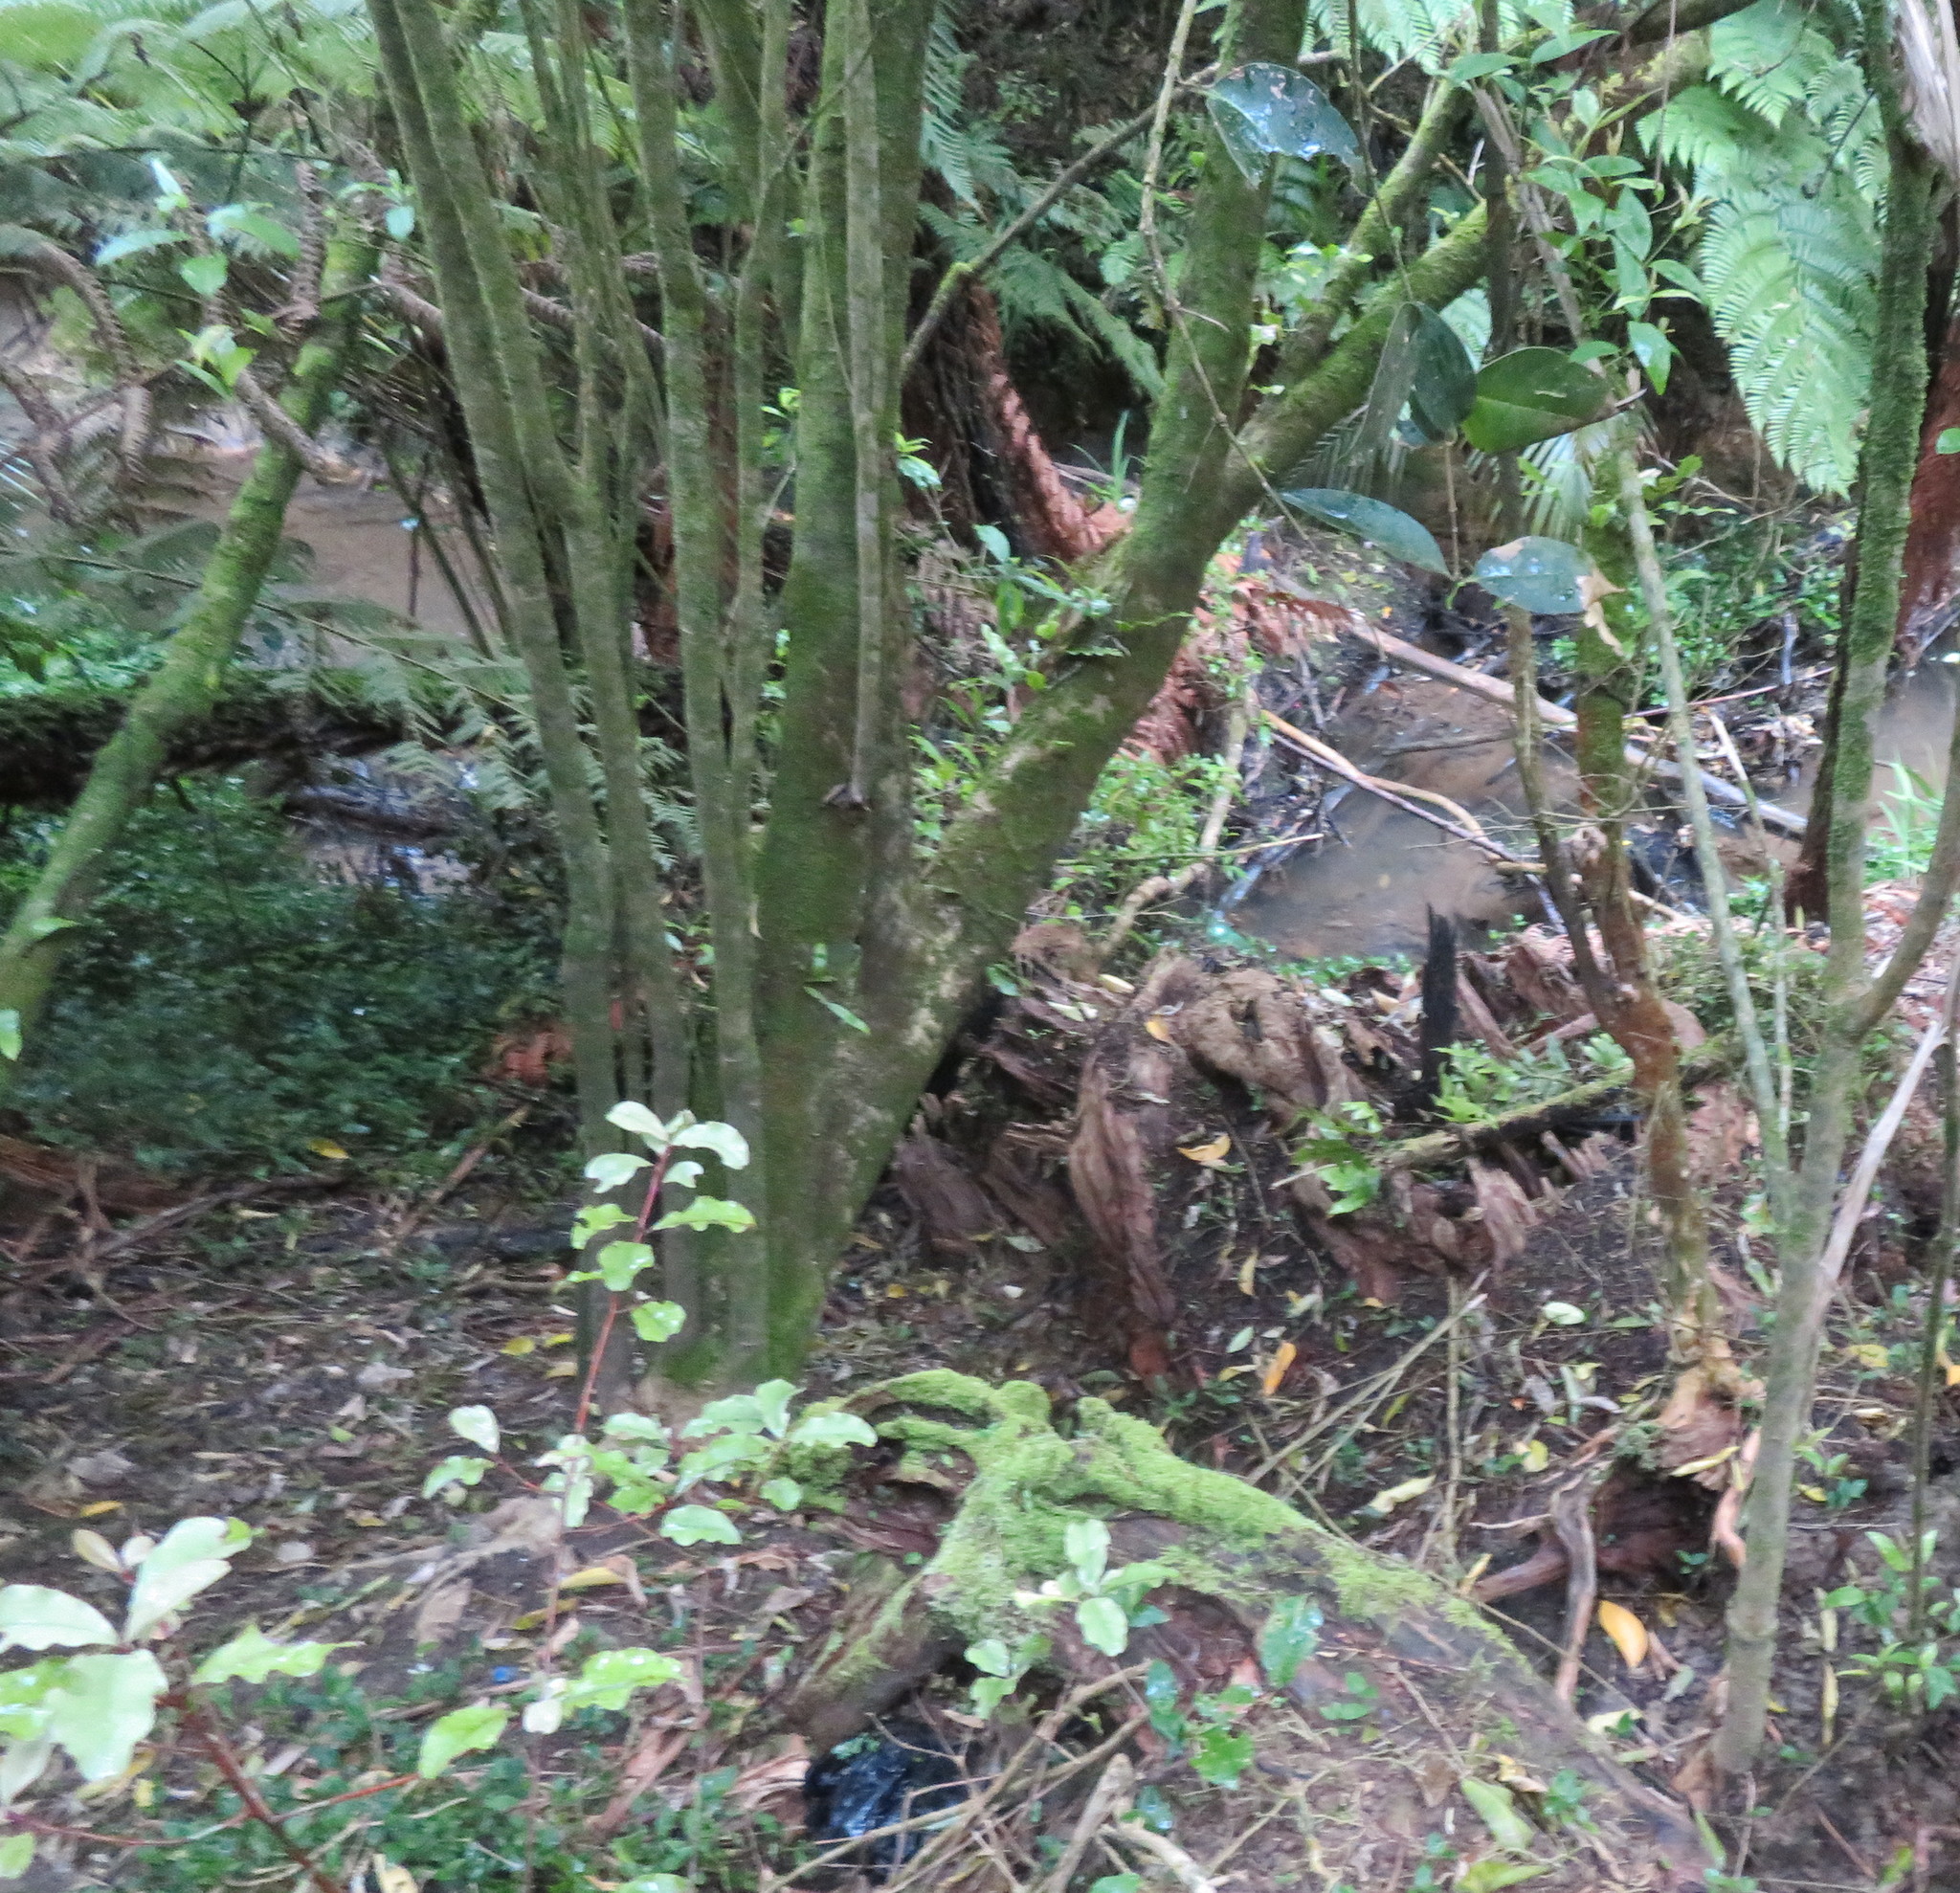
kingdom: Plantae
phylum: Tracheophyta
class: Polypodiopsida
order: Polypodiales
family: Polypodiaceae
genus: Lecanopteris
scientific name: Lecanopteris pustulata
